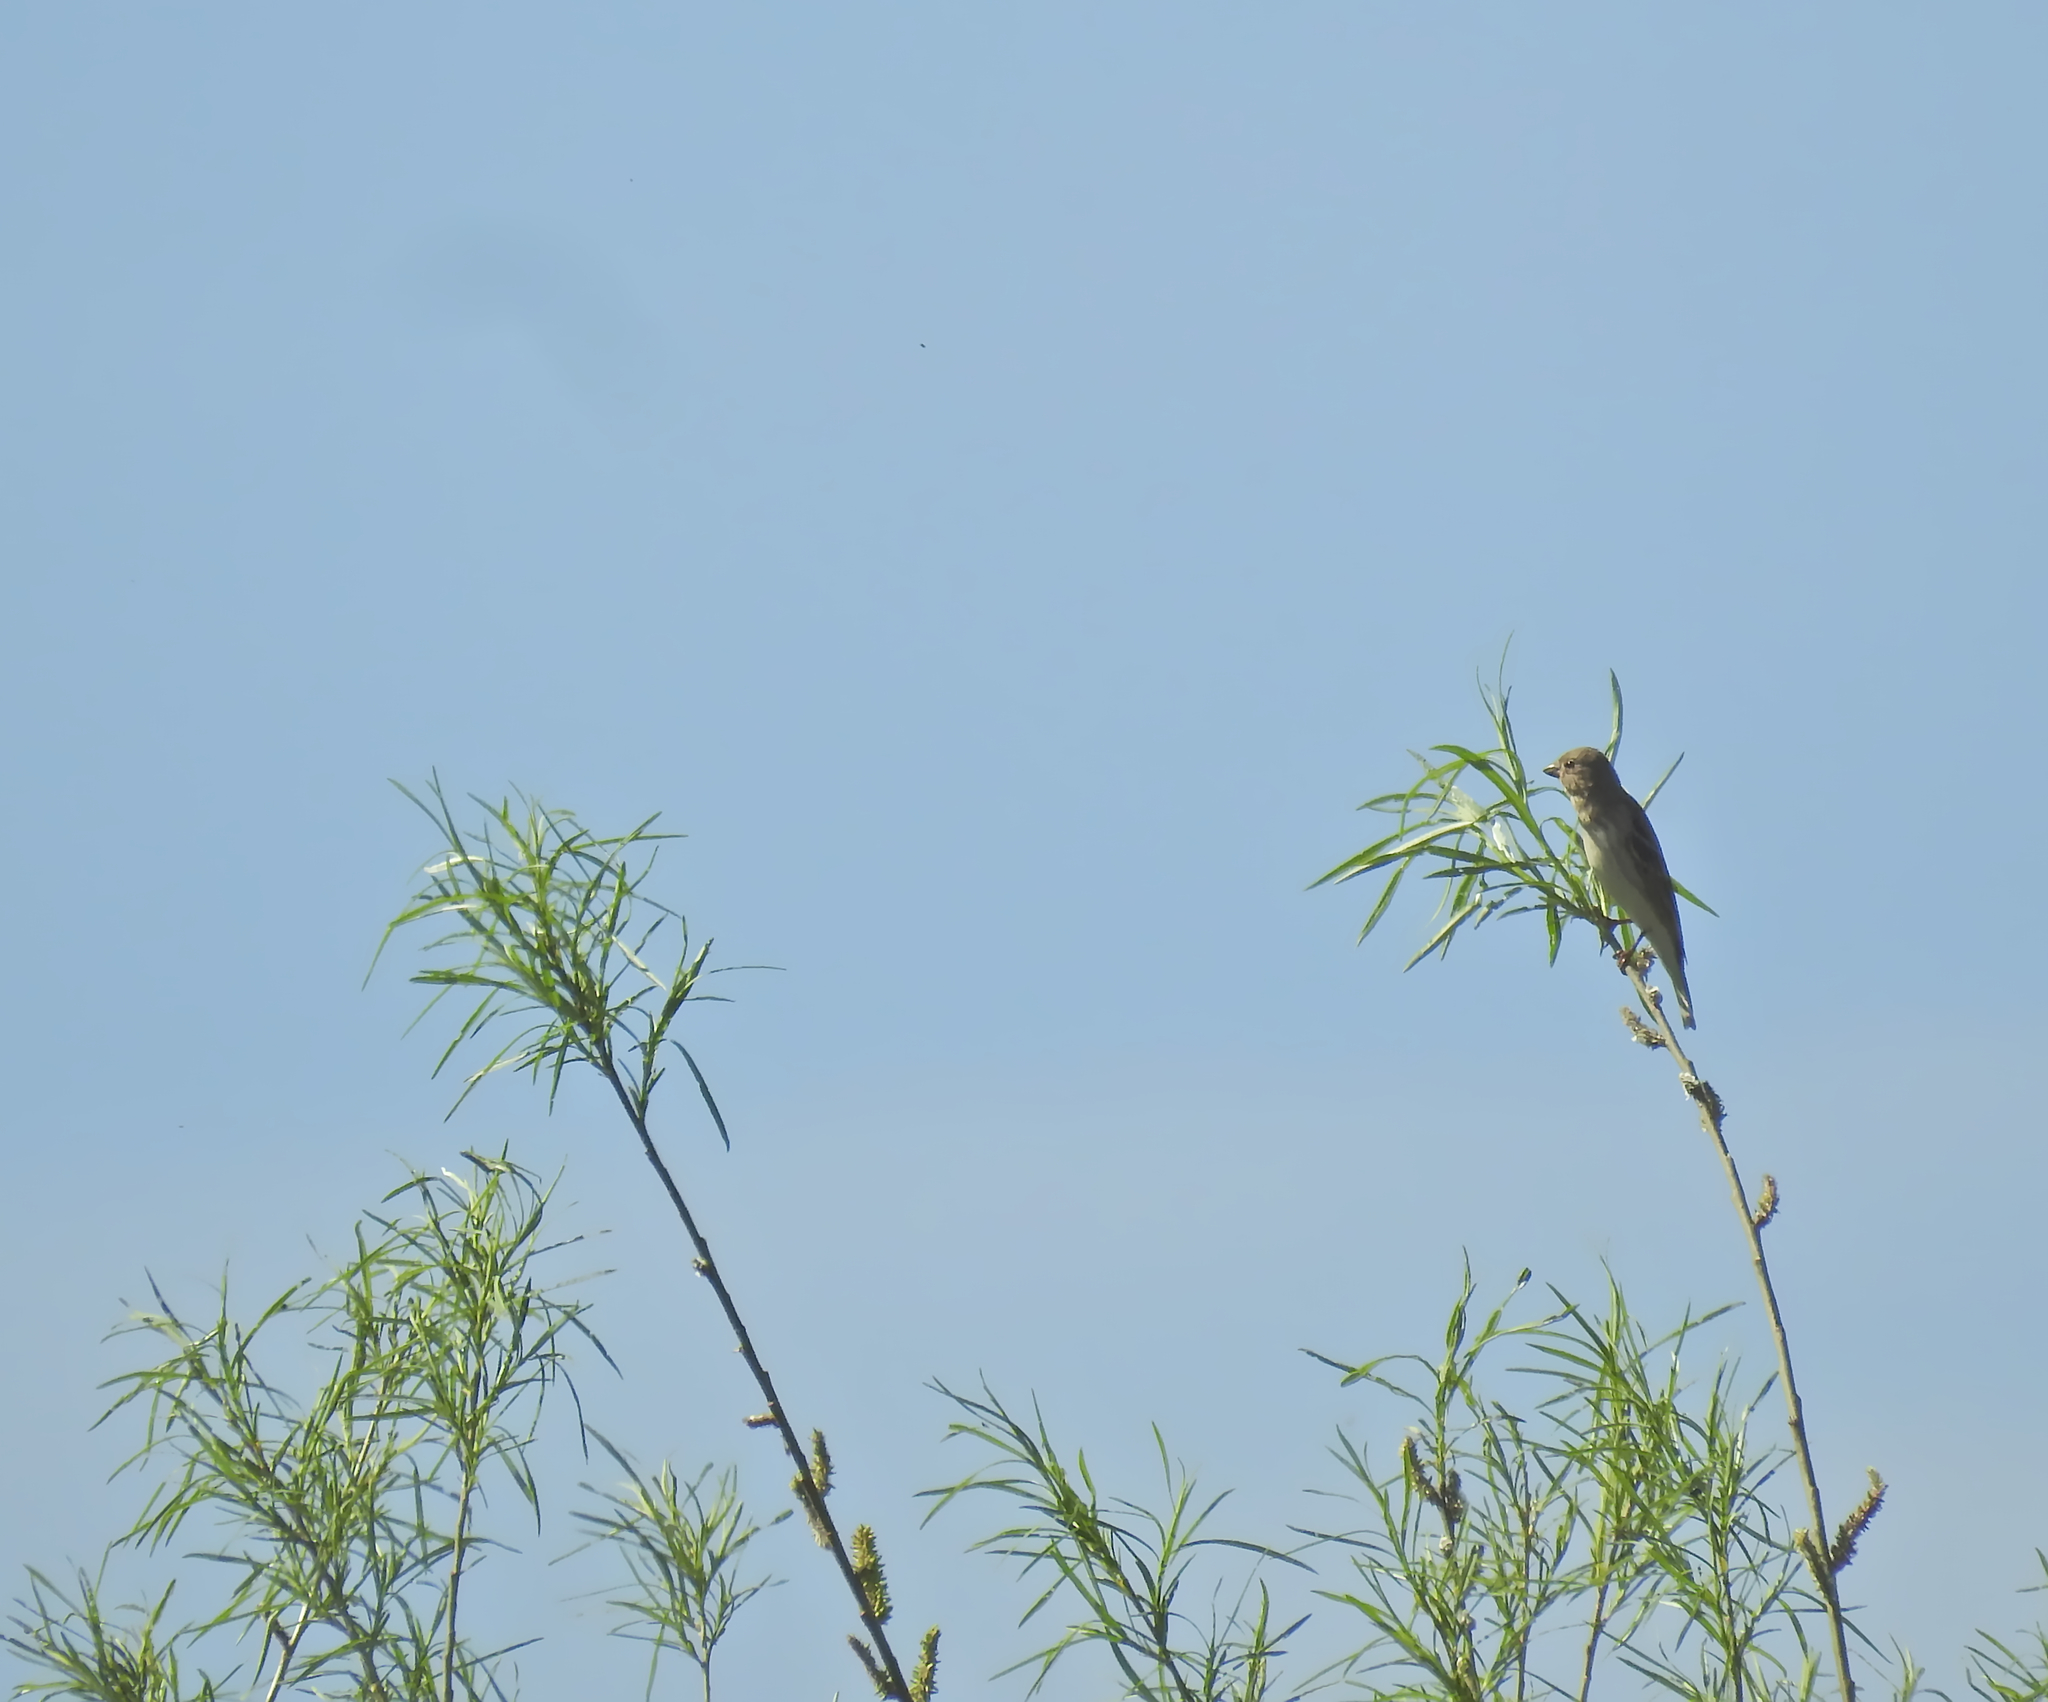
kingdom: Animalia
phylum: Chordata
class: Aves
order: Passeriformes
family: Fringillidae
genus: Carpodacus
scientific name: Carpodacus erythrinus
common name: Common rosefinch
